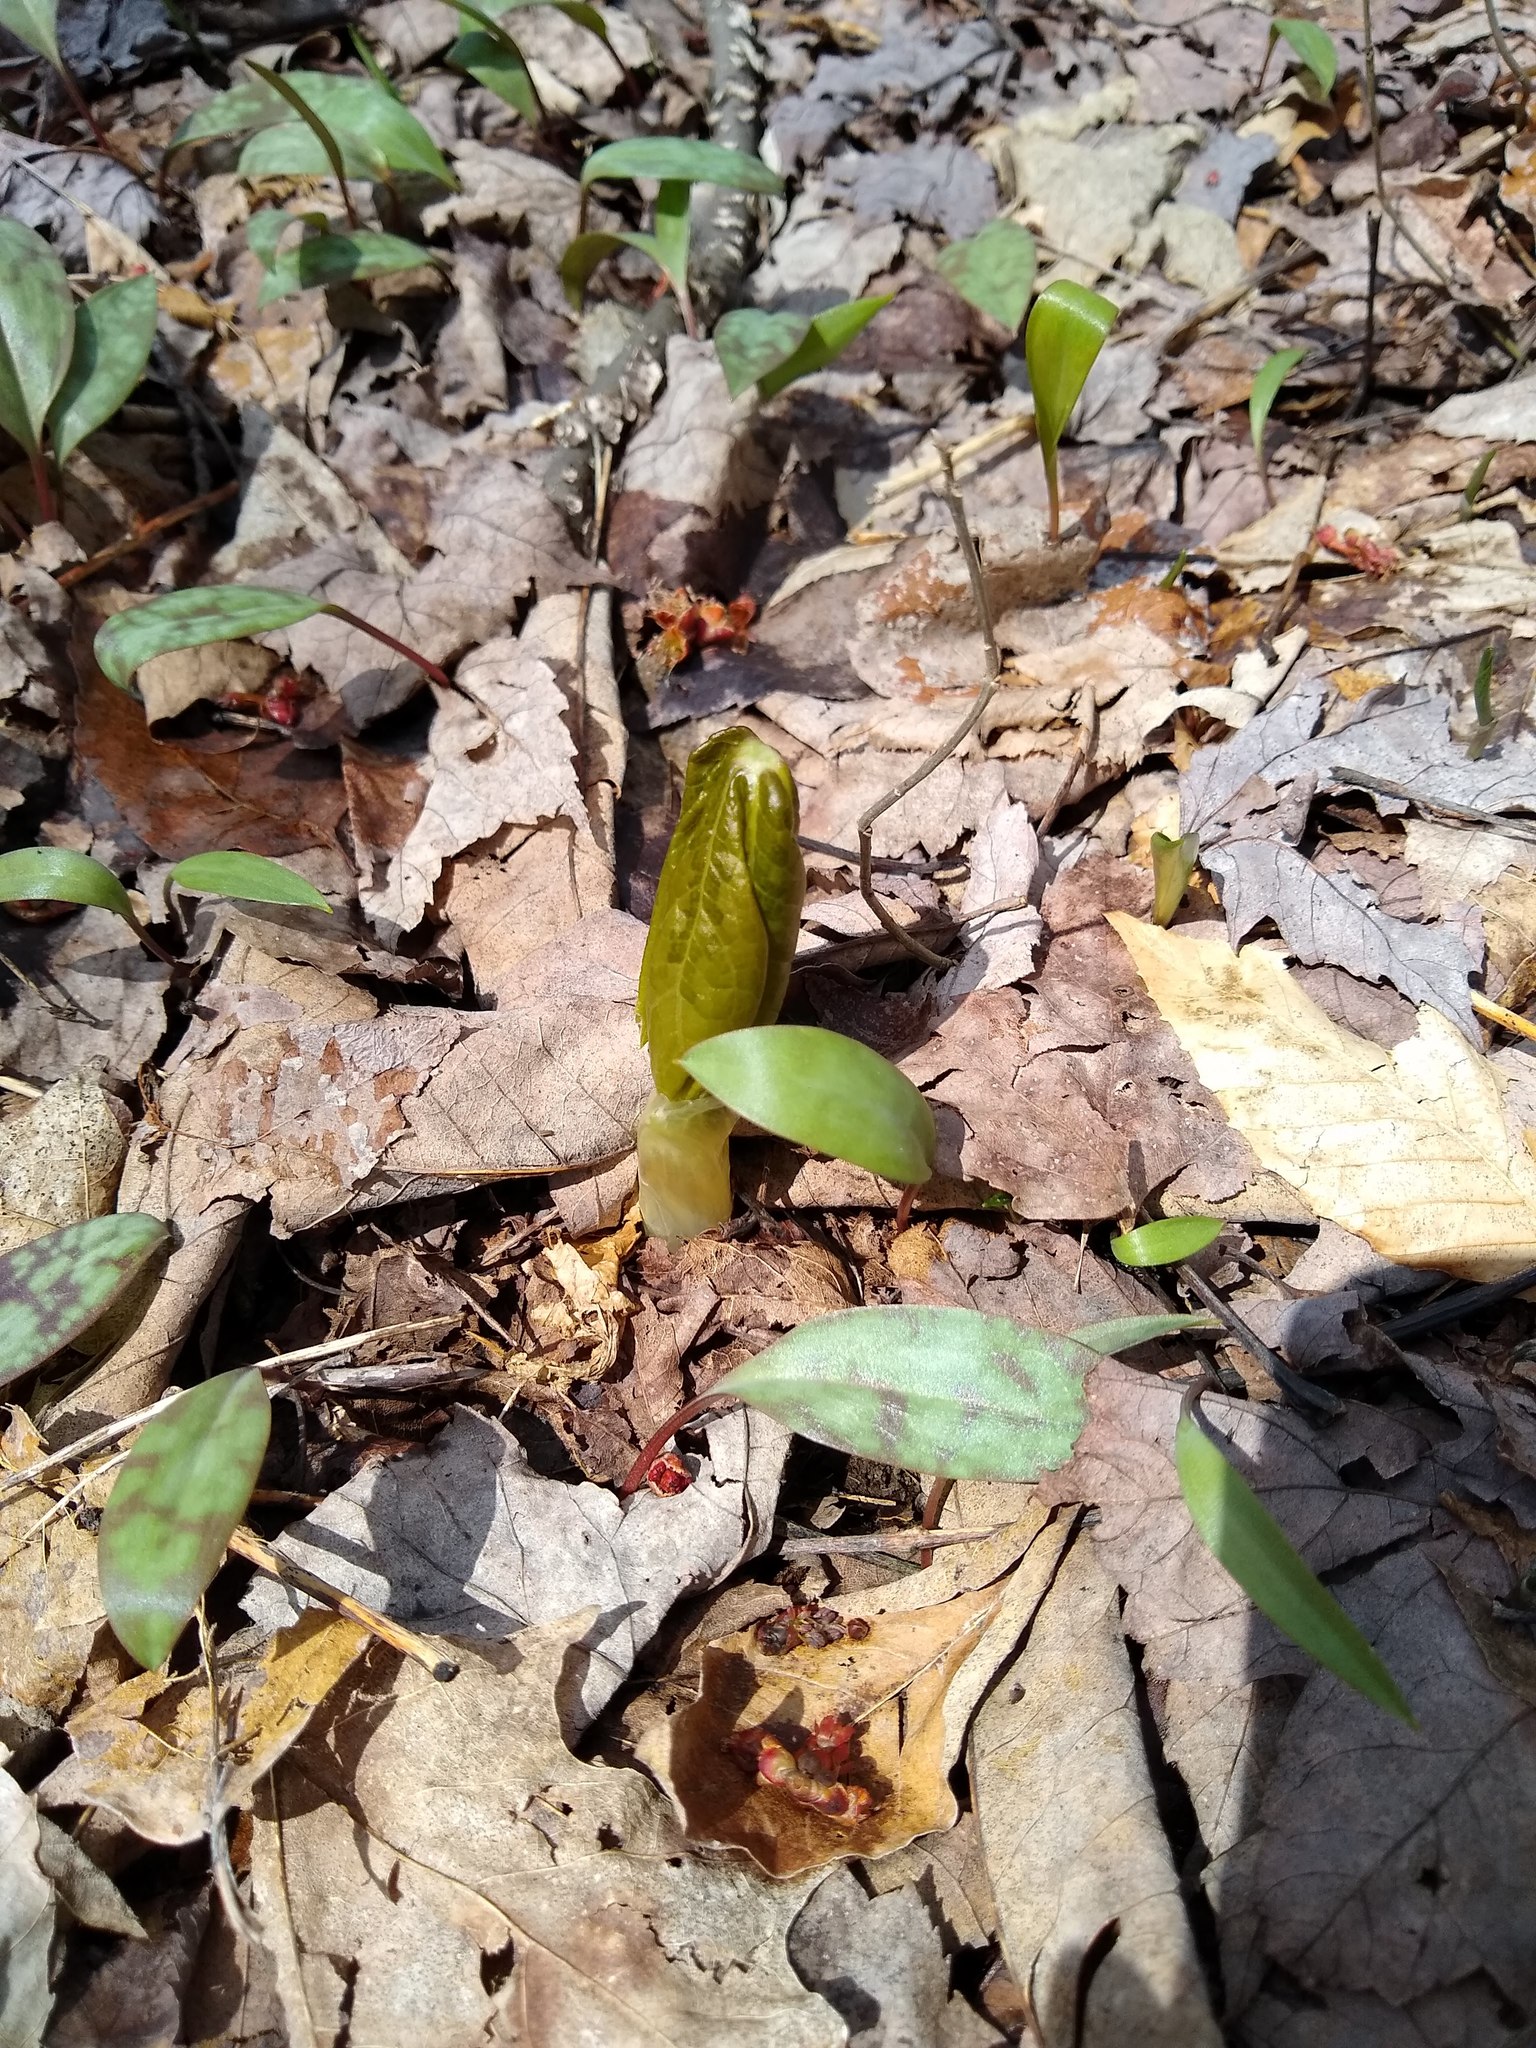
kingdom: Plantae
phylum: Tracheophyta
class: Liliopsida
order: Liliales
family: Liliaceae
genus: Erythronium
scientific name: Erythronium americanum
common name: Yellow adder's-tongue
